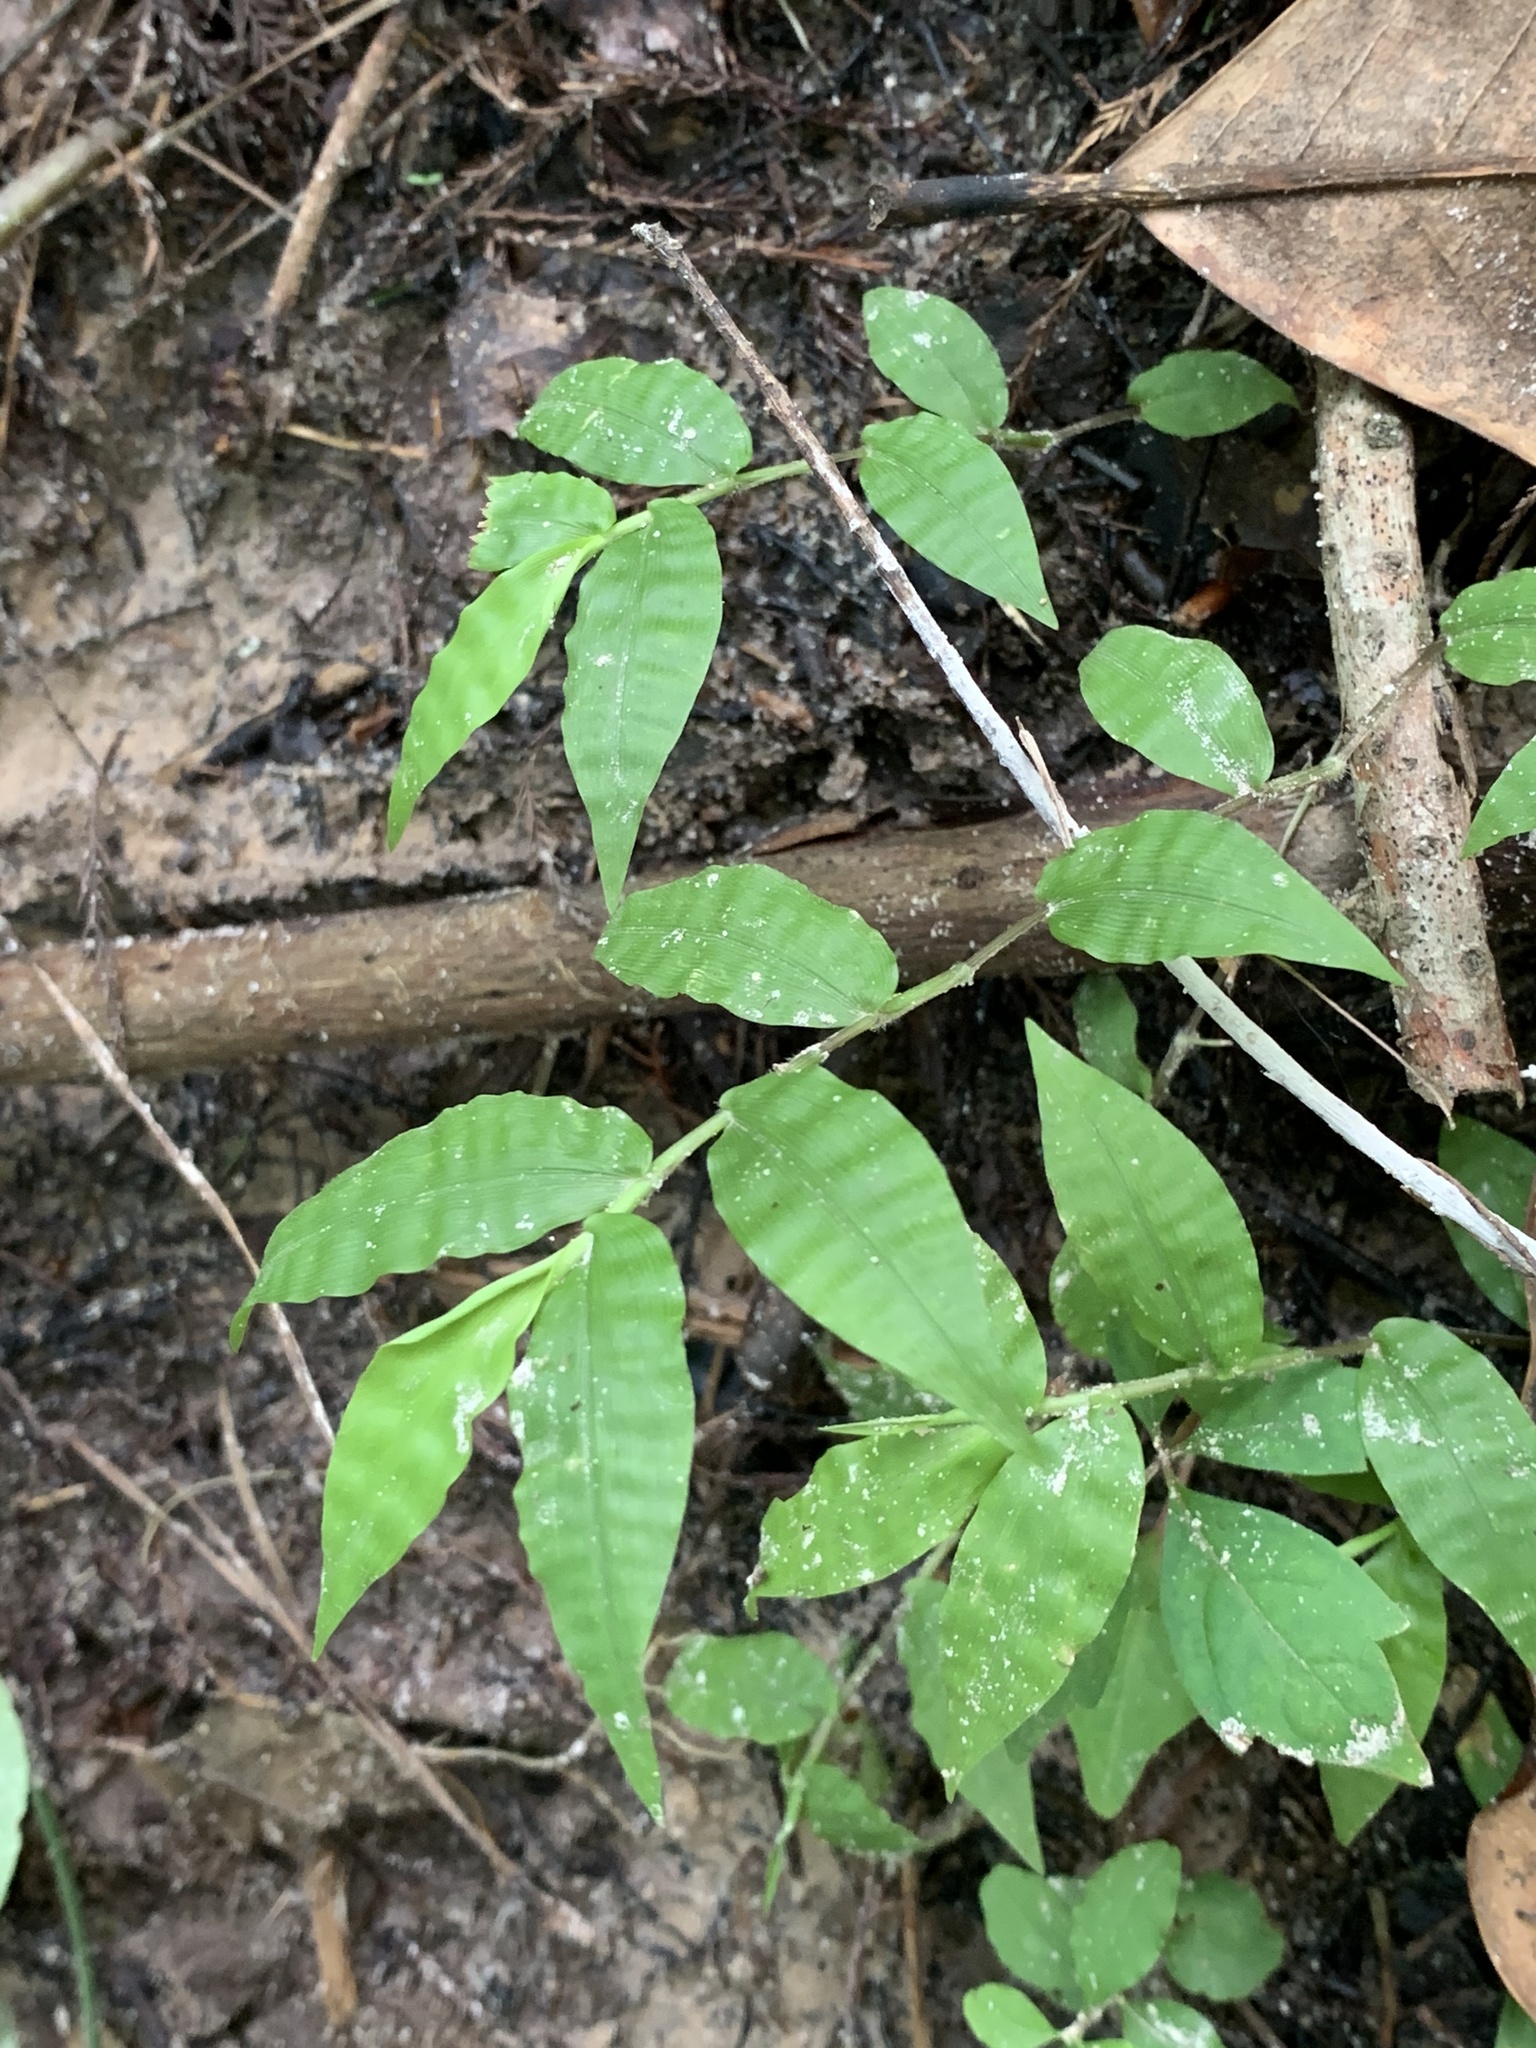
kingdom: Plantae
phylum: Tracheophyta
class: Liliopsida
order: Poales
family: Poaceae
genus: Oplismenus
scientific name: Oplismenus hirtellus
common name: Basketgrass
